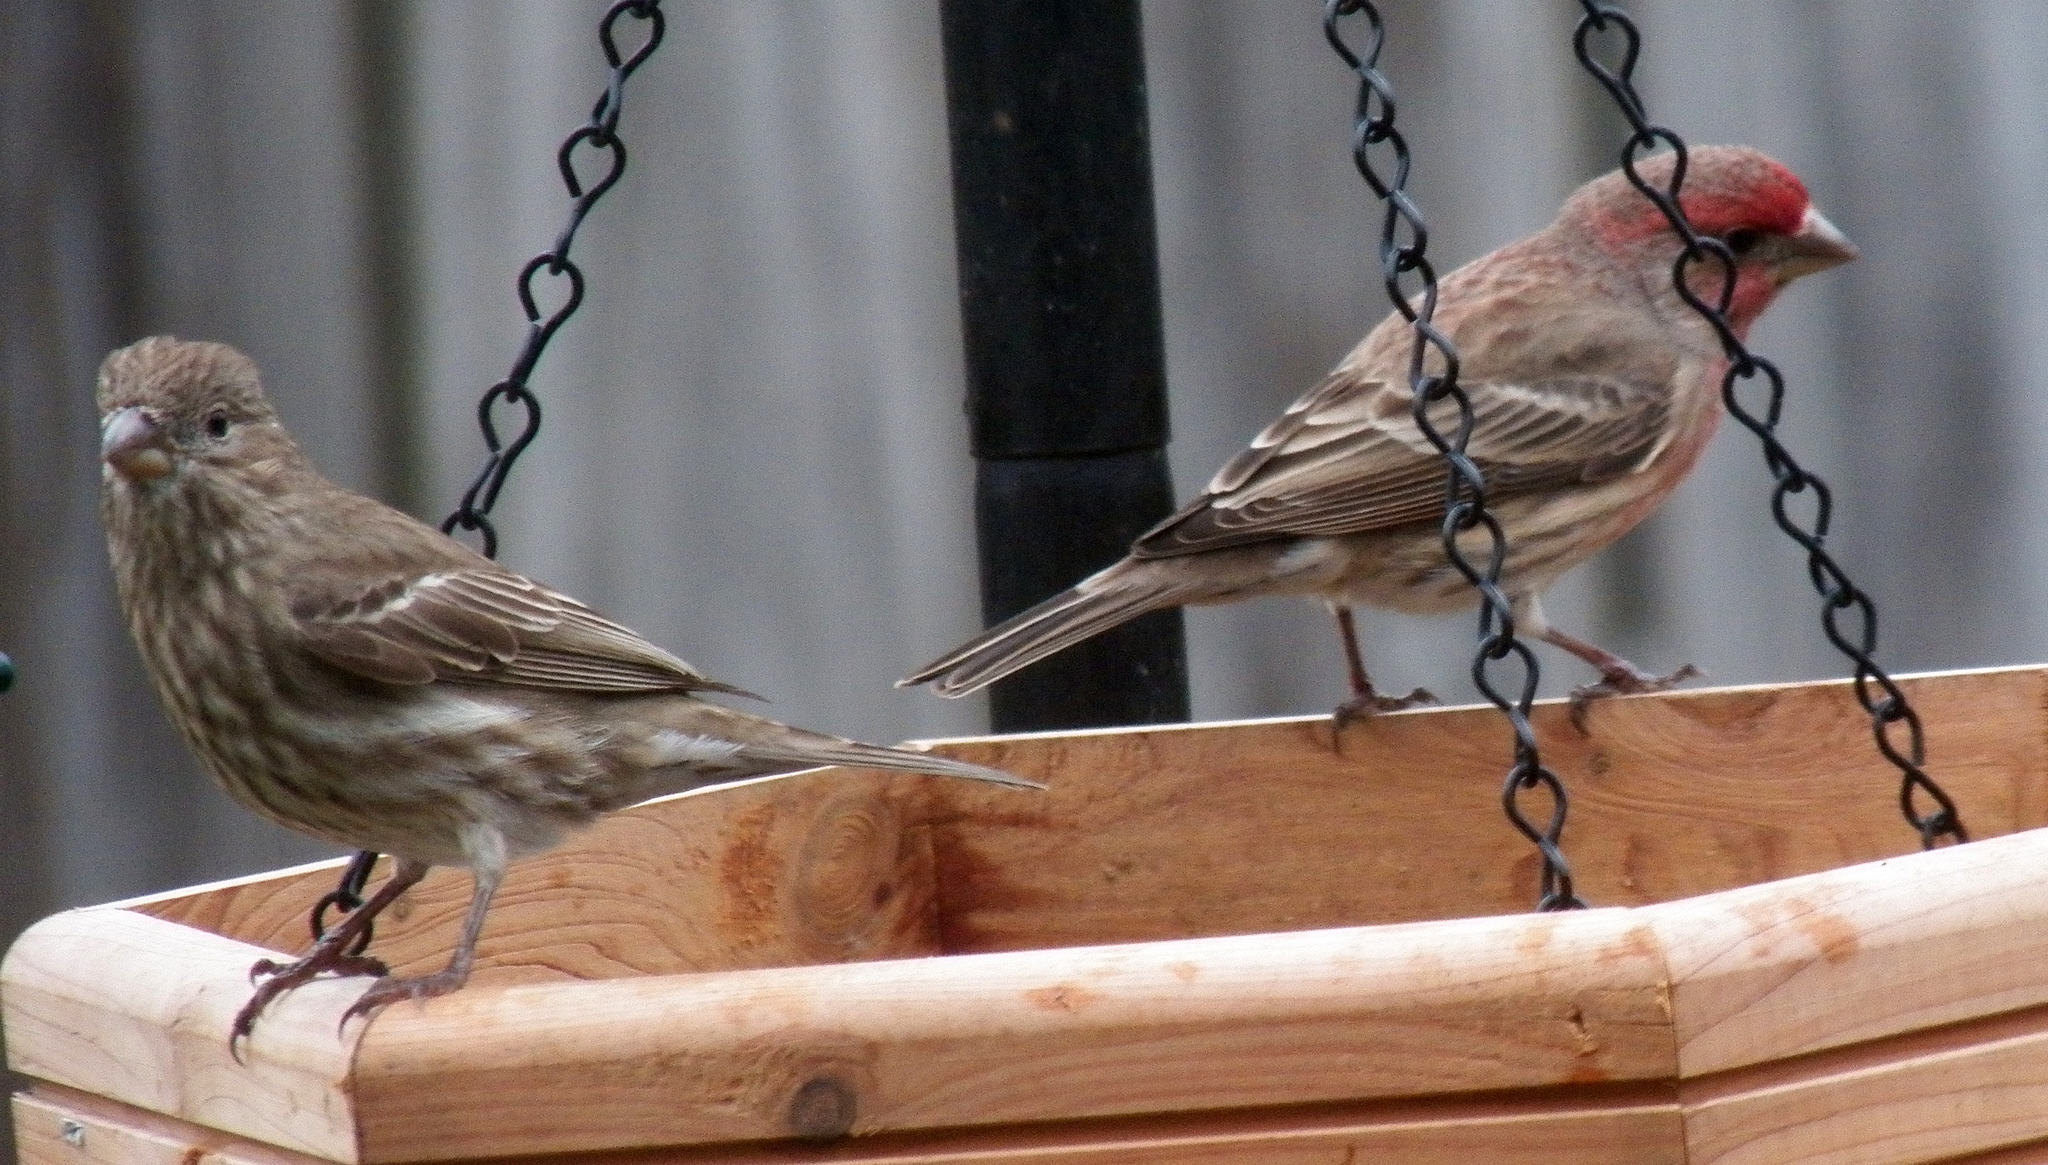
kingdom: Animalia
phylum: Chordata
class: Aves
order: Passeriformes
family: Fringillidae
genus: Haemorhous
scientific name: Haemorhous mexicanus
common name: House finch
